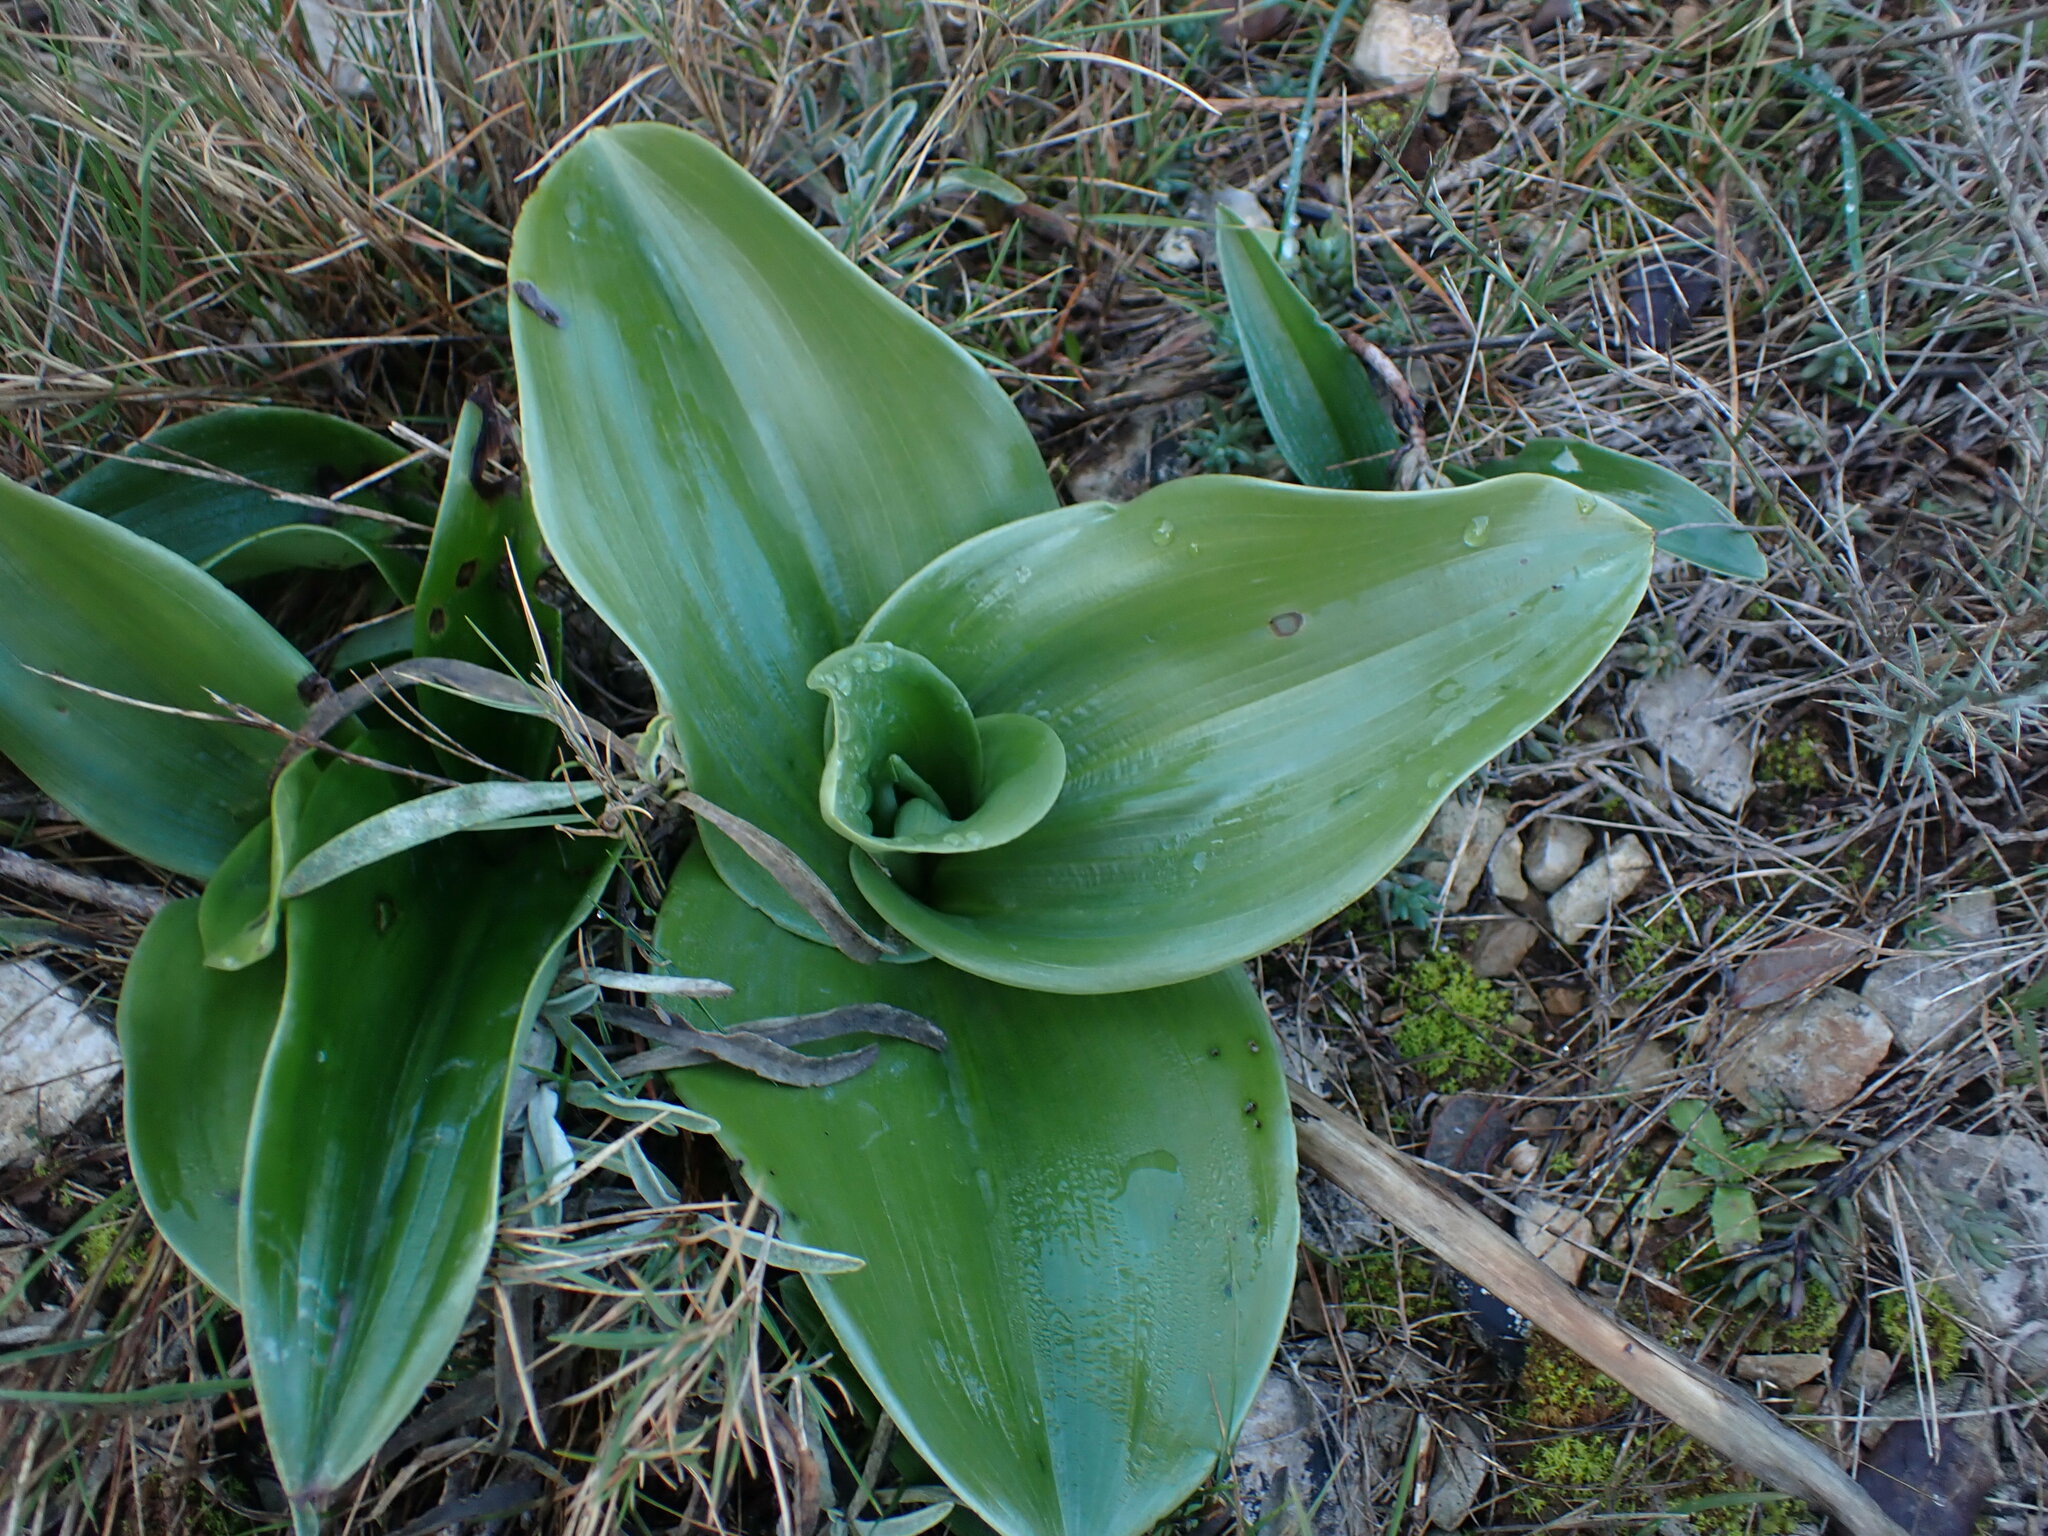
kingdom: Plantae
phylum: Tracheophyta
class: Liliopsida
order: Asparagales
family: Orchidaceae
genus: Himantoglossum
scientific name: Himantoglossum robertianum
